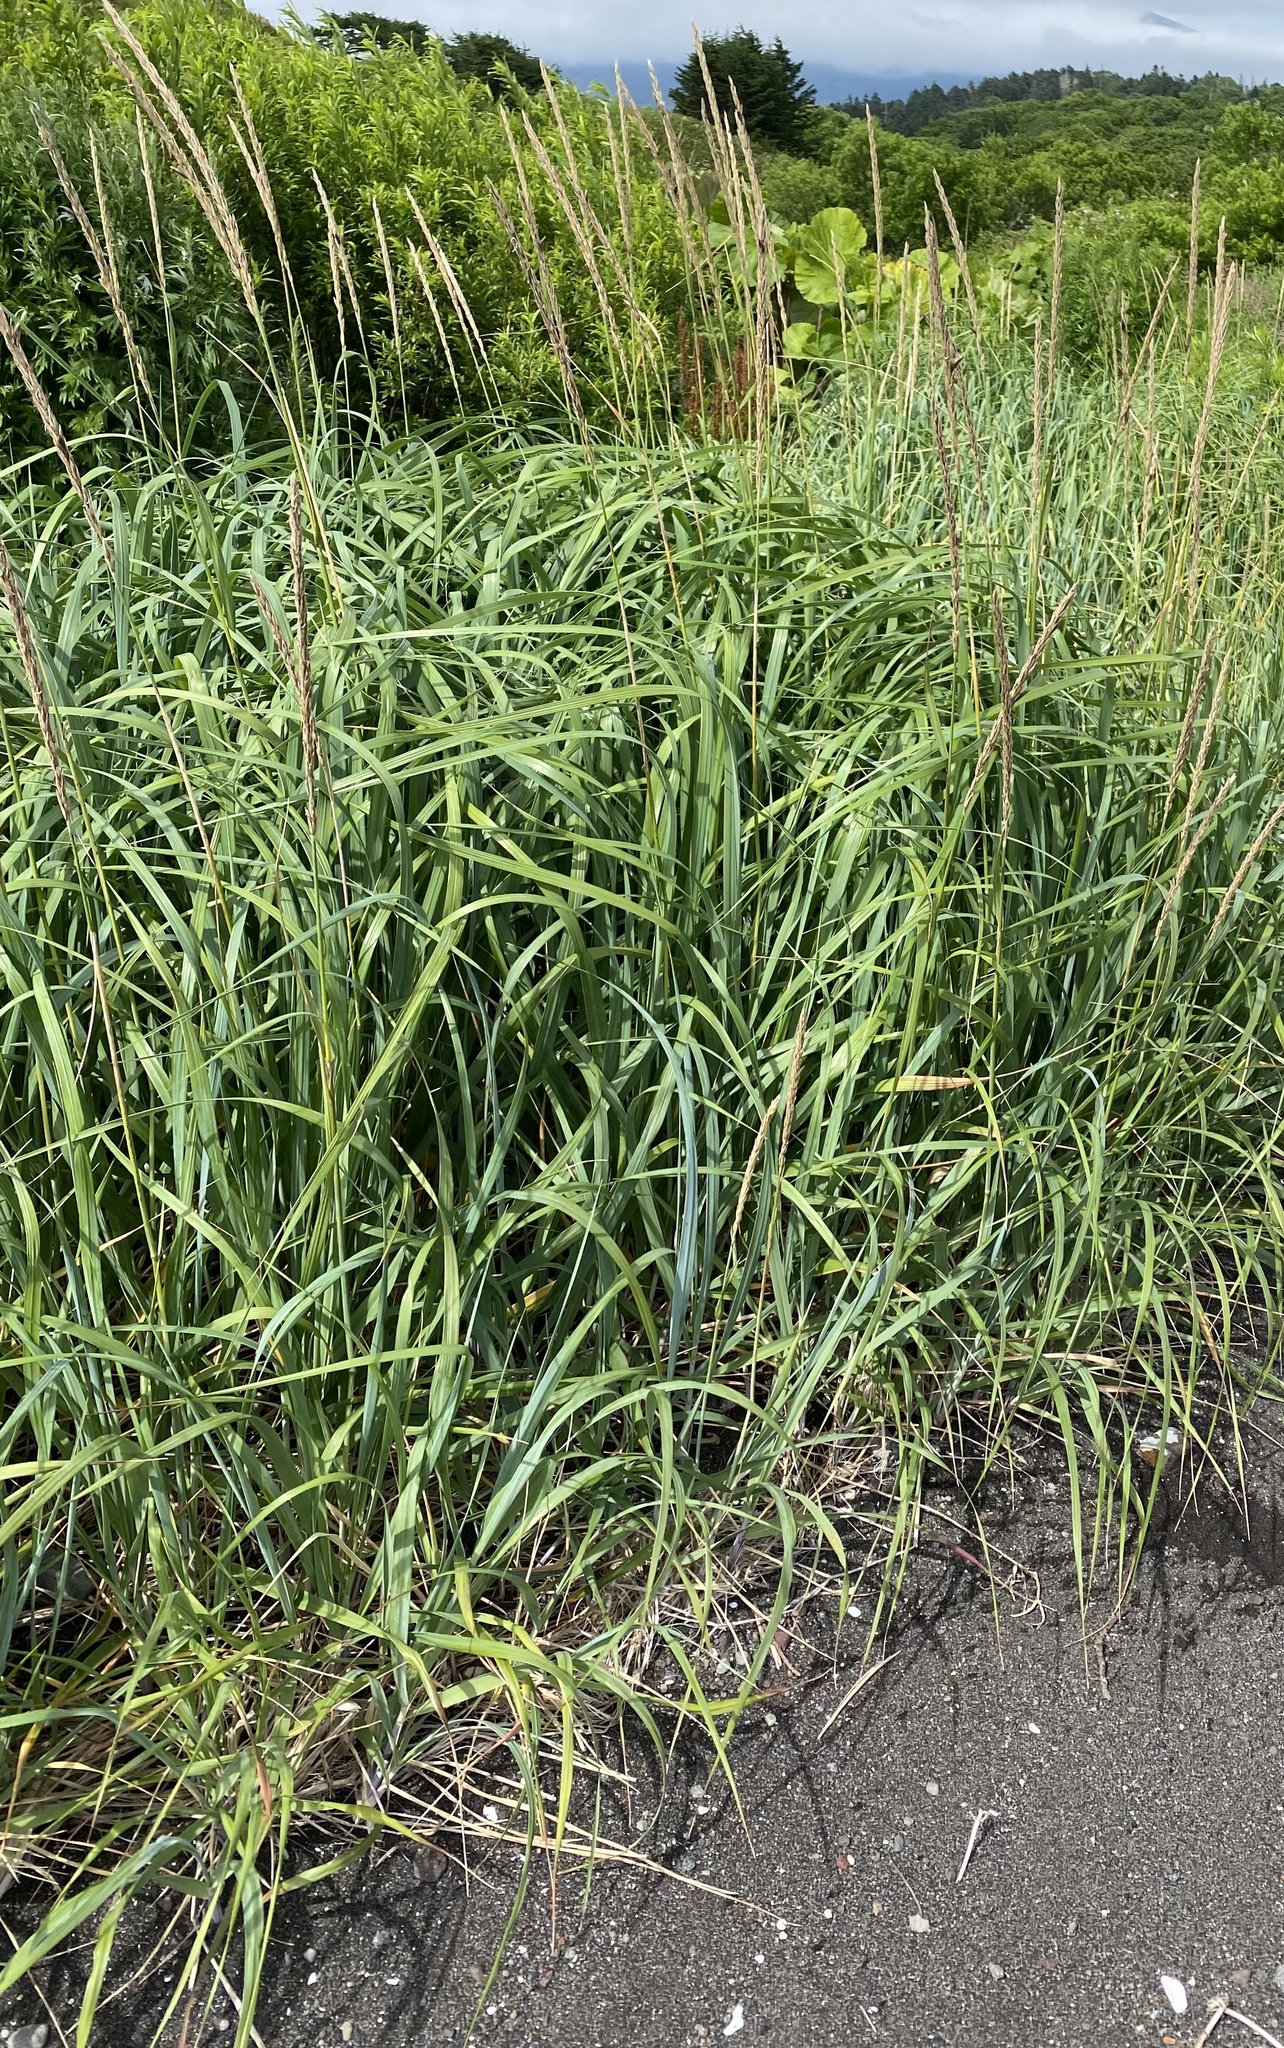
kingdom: Plantae
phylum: Tracheophyta
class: Liliopsida
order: Poales
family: Poaceae
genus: Leymus
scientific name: Leymus mollis
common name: American dune grass
